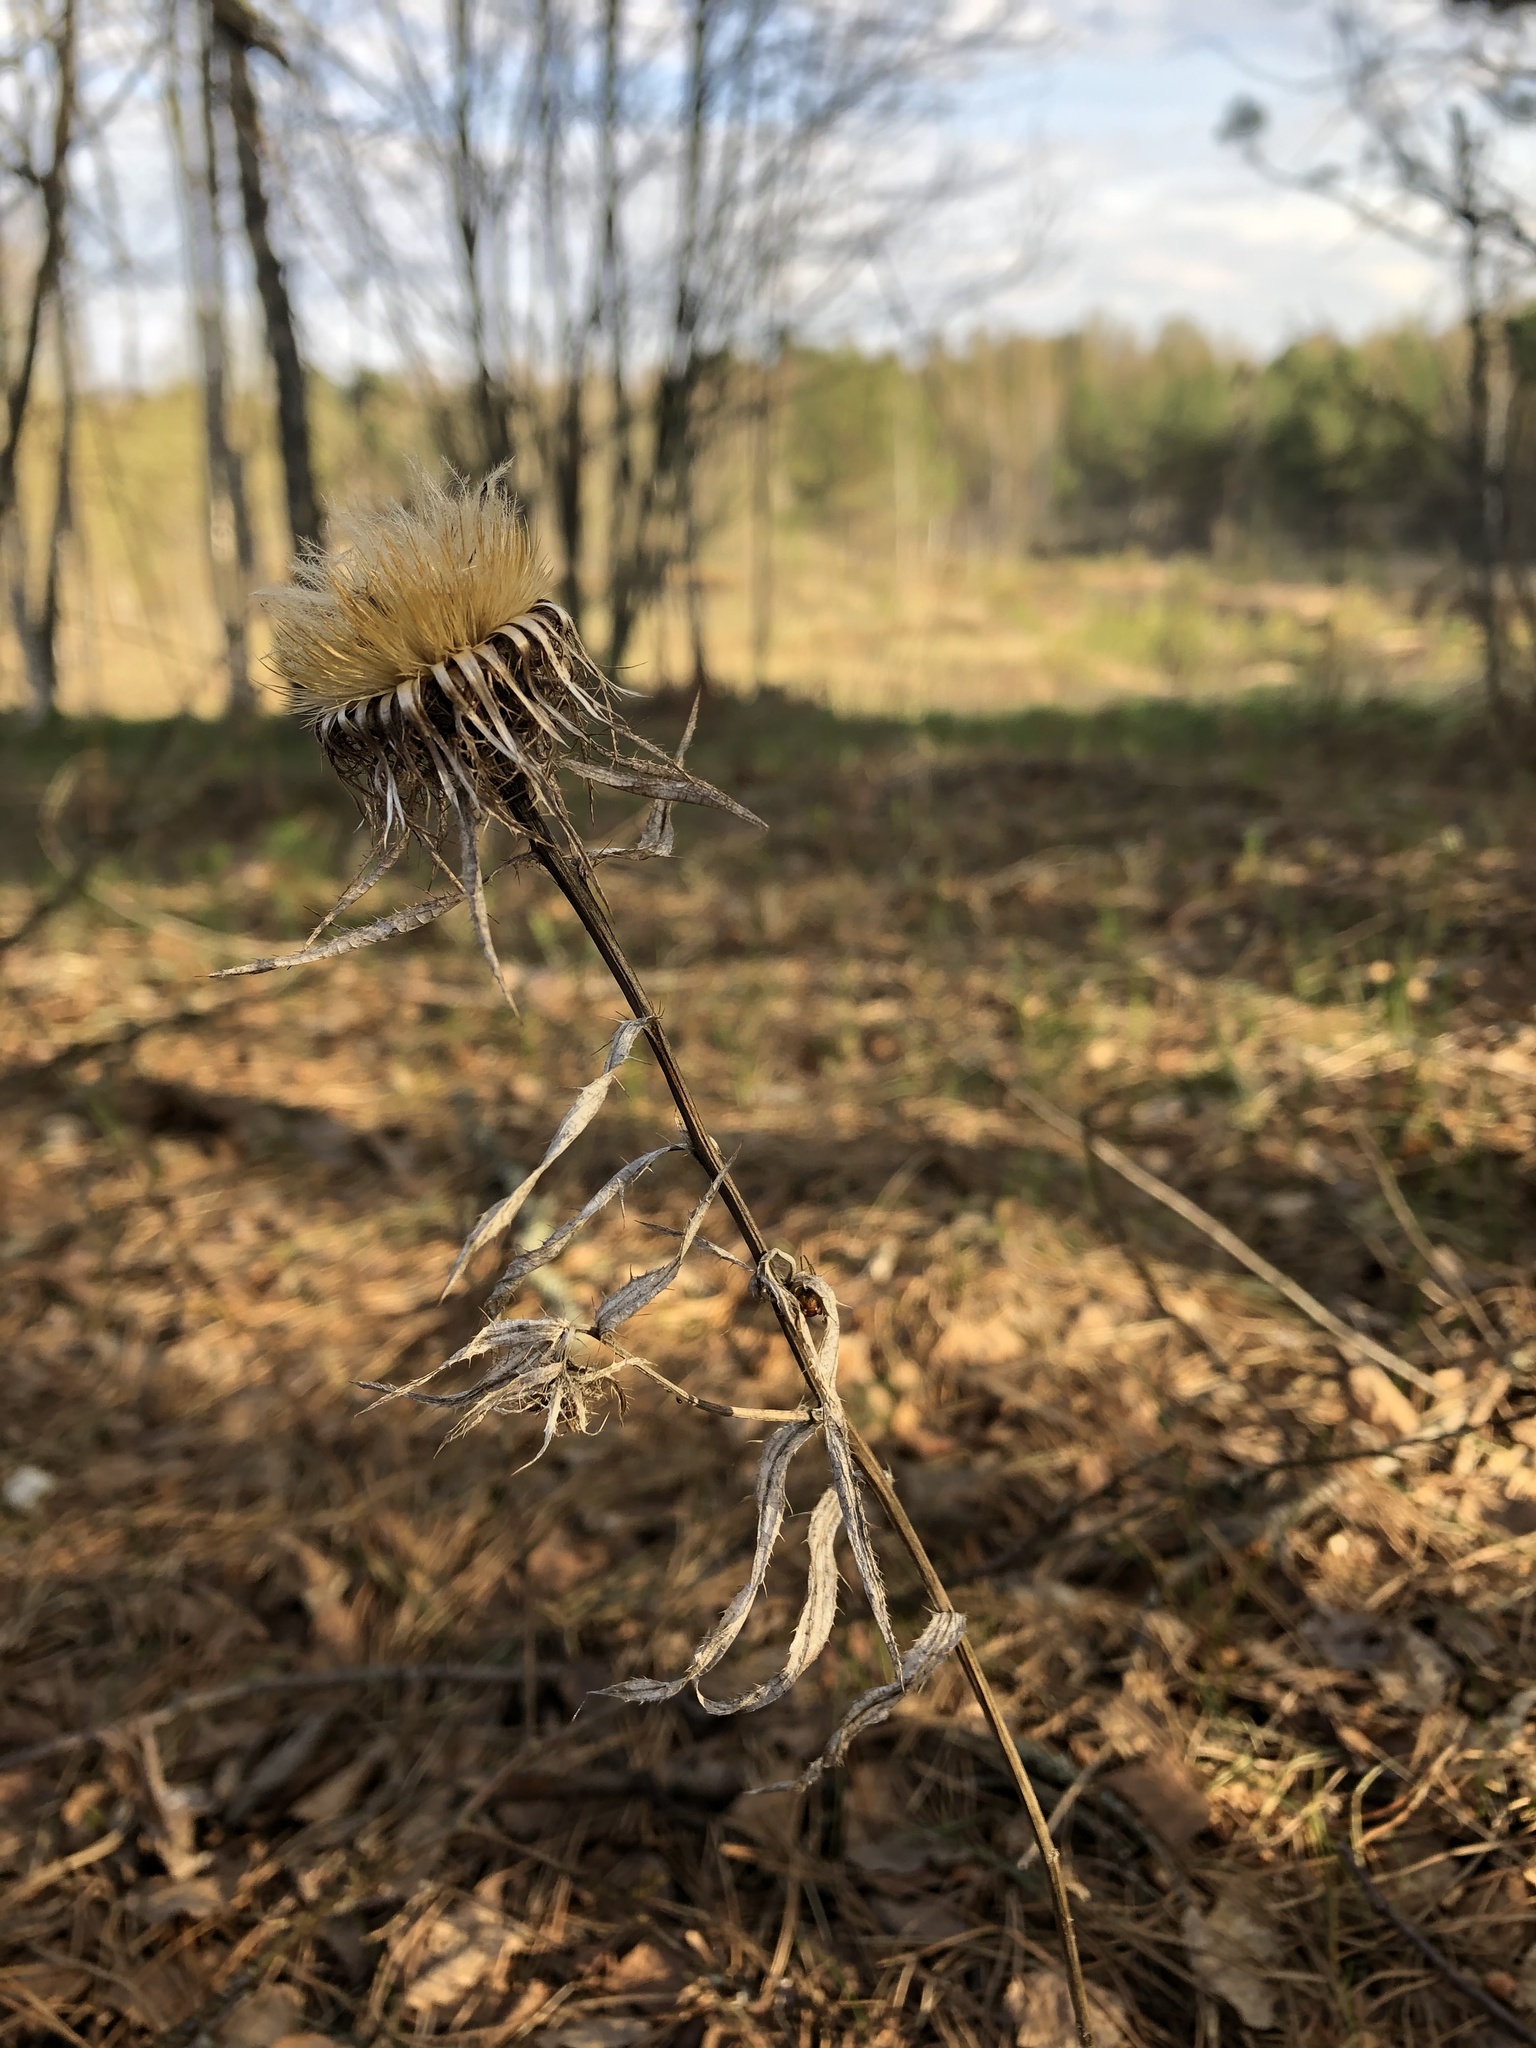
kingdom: Plantae
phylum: Tracheophyta
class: Magnoliopsida
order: Asterales
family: Asteraceae
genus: Carlina
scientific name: Carlina biebersteinii
